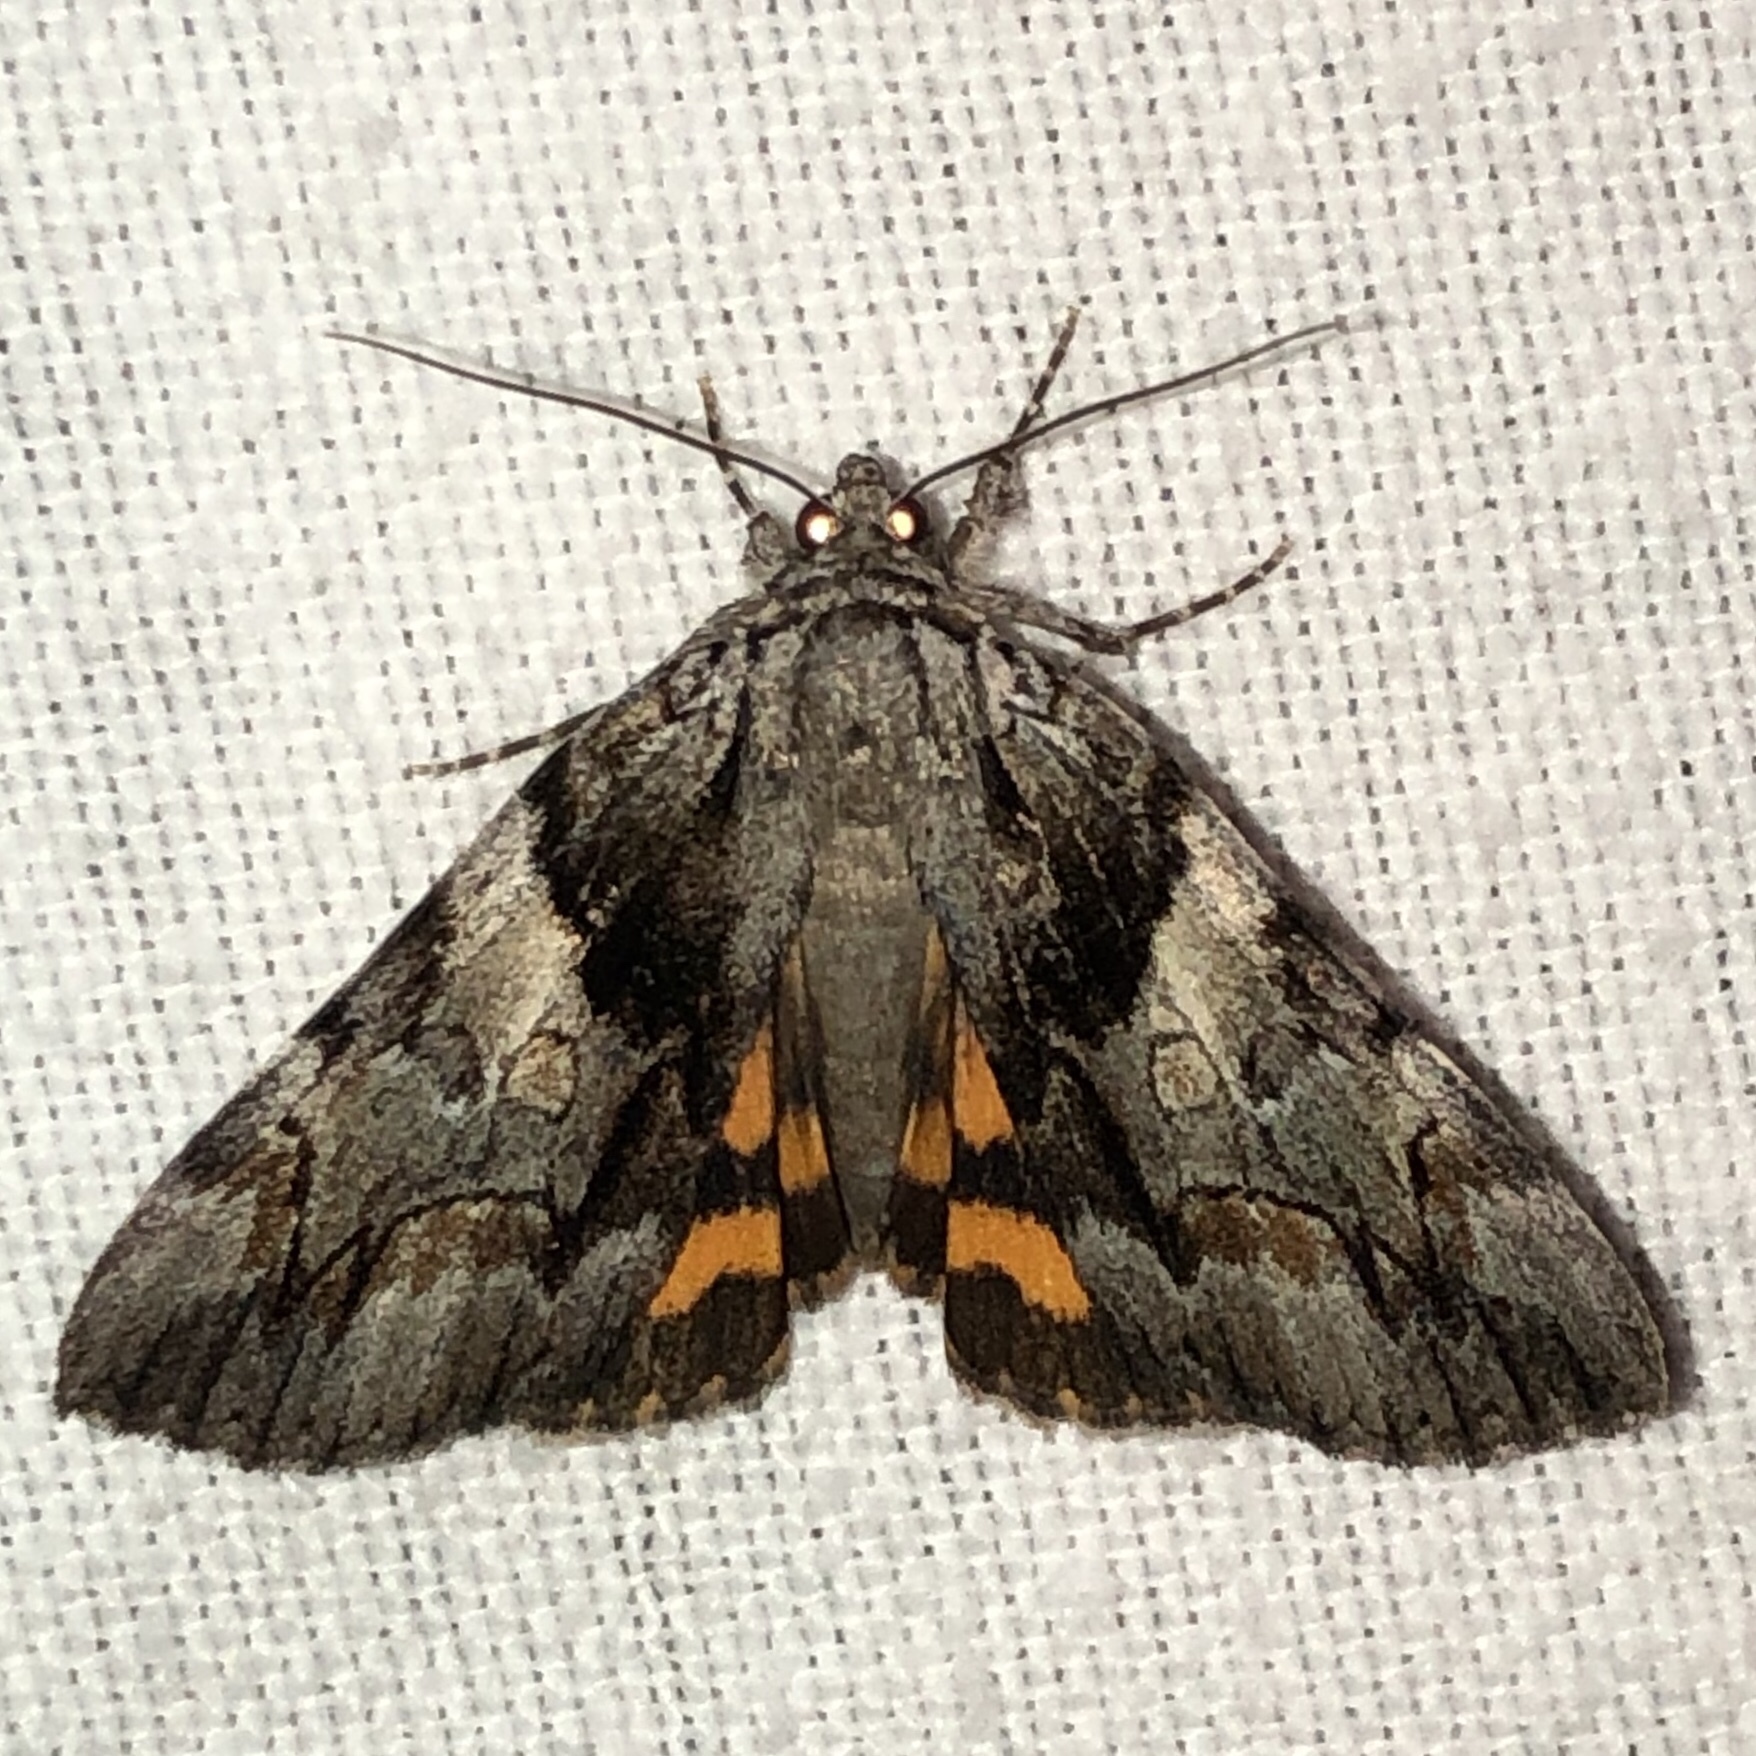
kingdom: Animalia
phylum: Arthropoda
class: Insecta
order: Lepidoptera
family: Erebidae
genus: Catocala
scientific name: Catocala blandula
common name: Charming underwing
